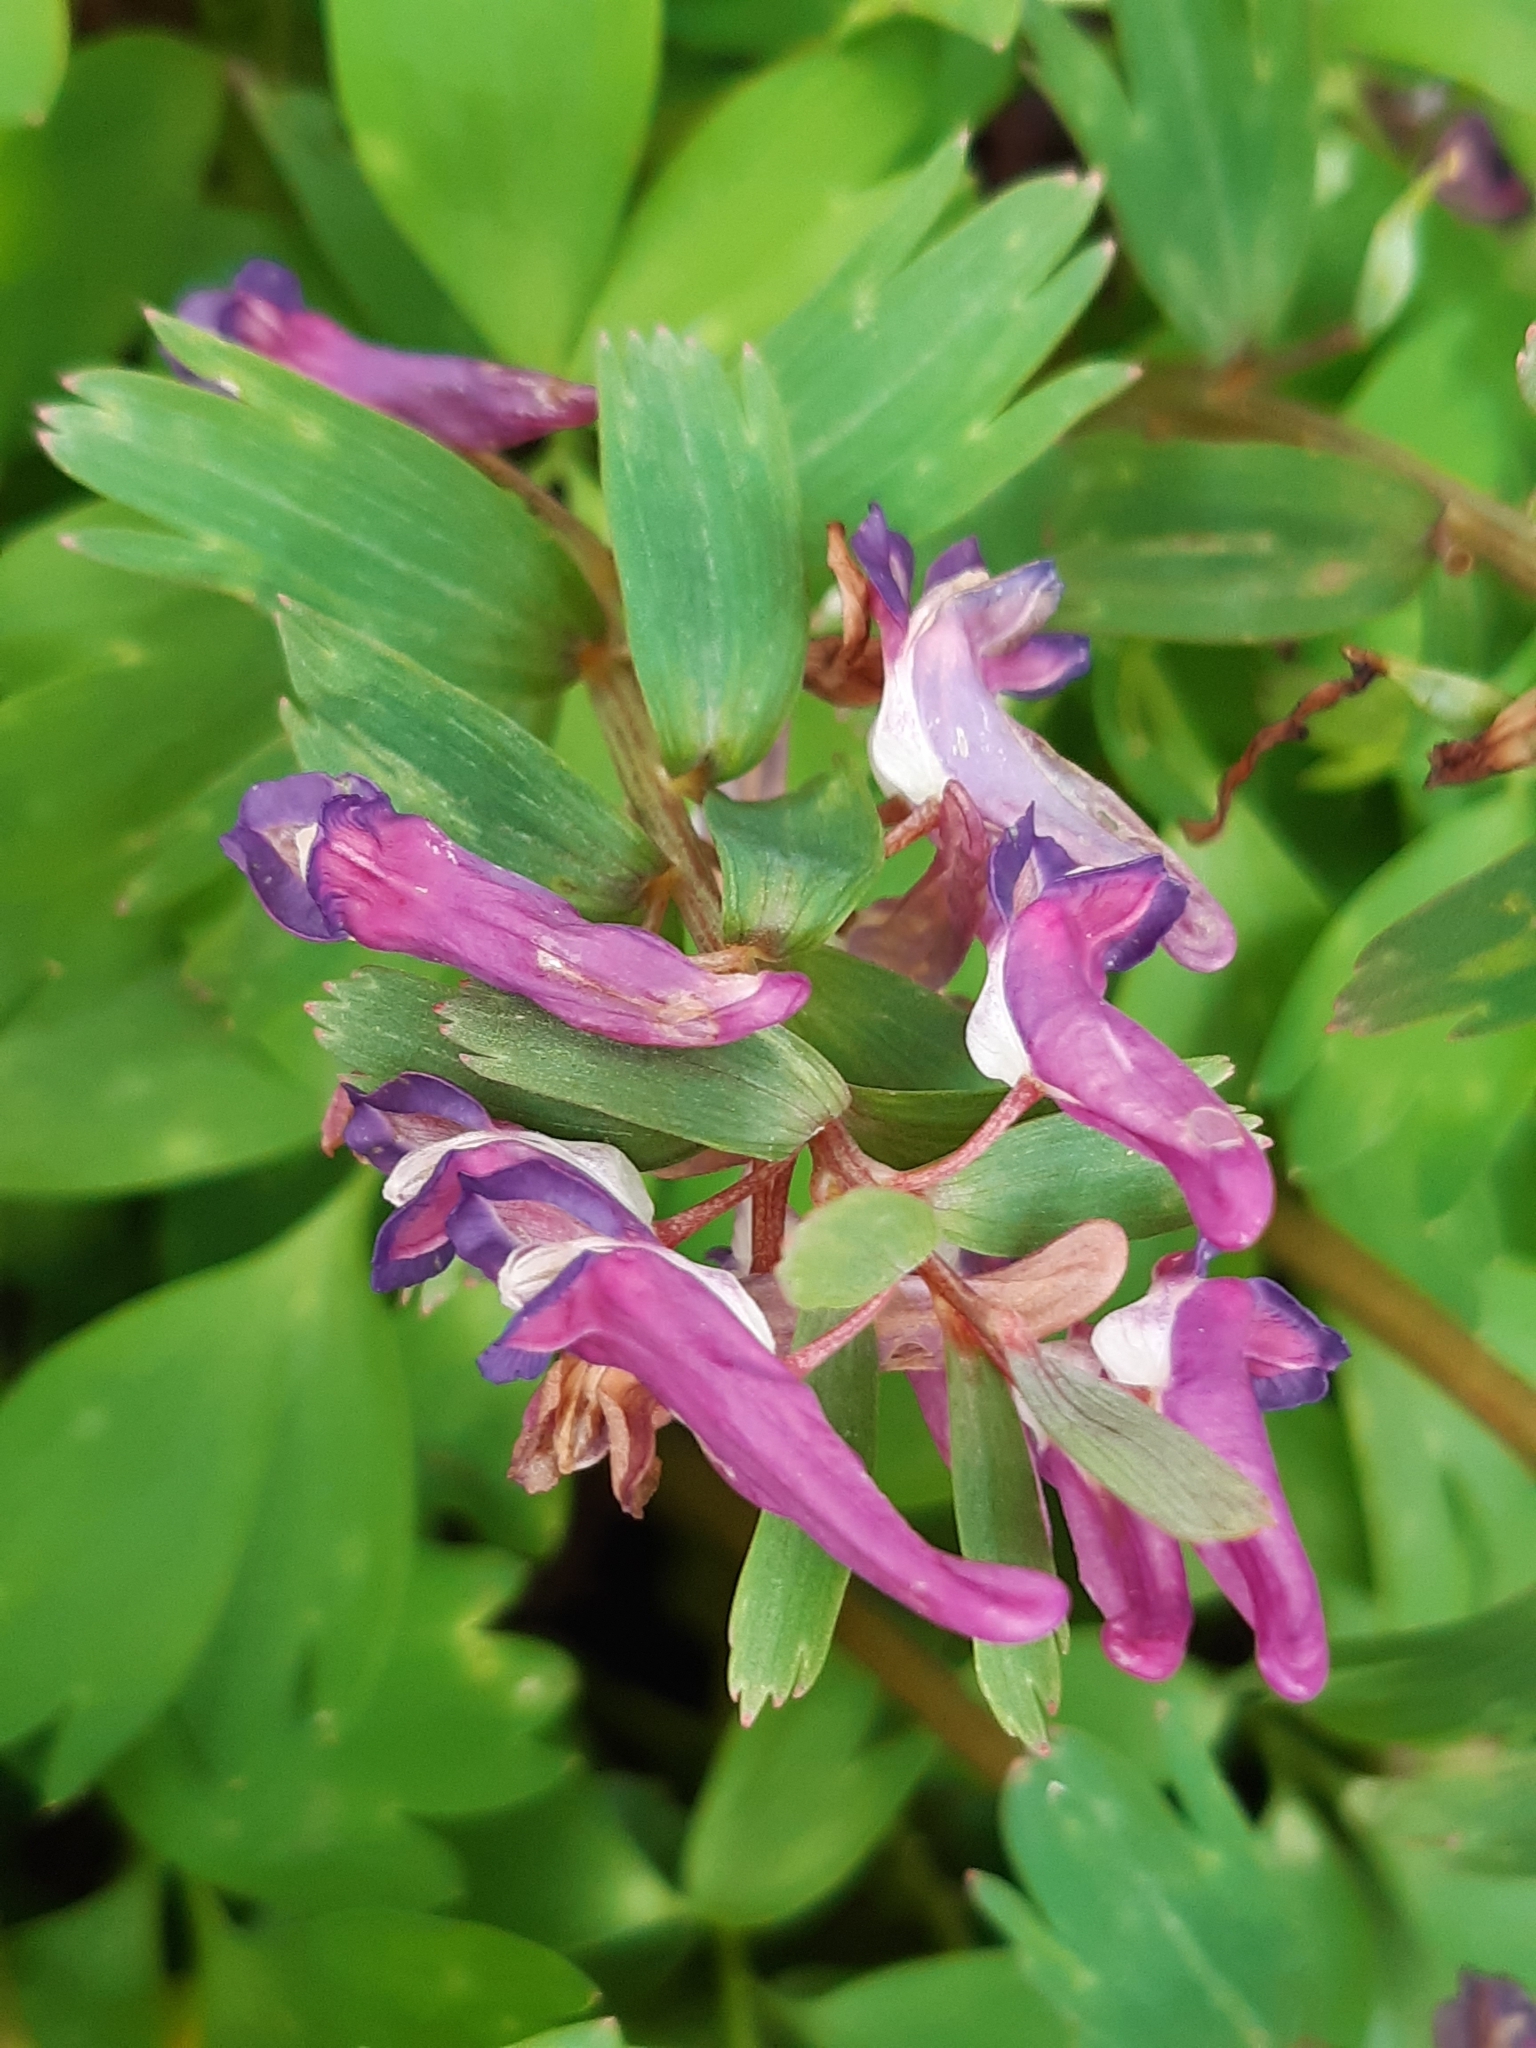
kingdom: Plantae
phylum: Tracheophyta
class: Magnoliopsida
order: Ranunculales
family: Papaveraceae
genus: Corydalis
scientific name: Corydalis solida
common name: Bird-in-a-bush
